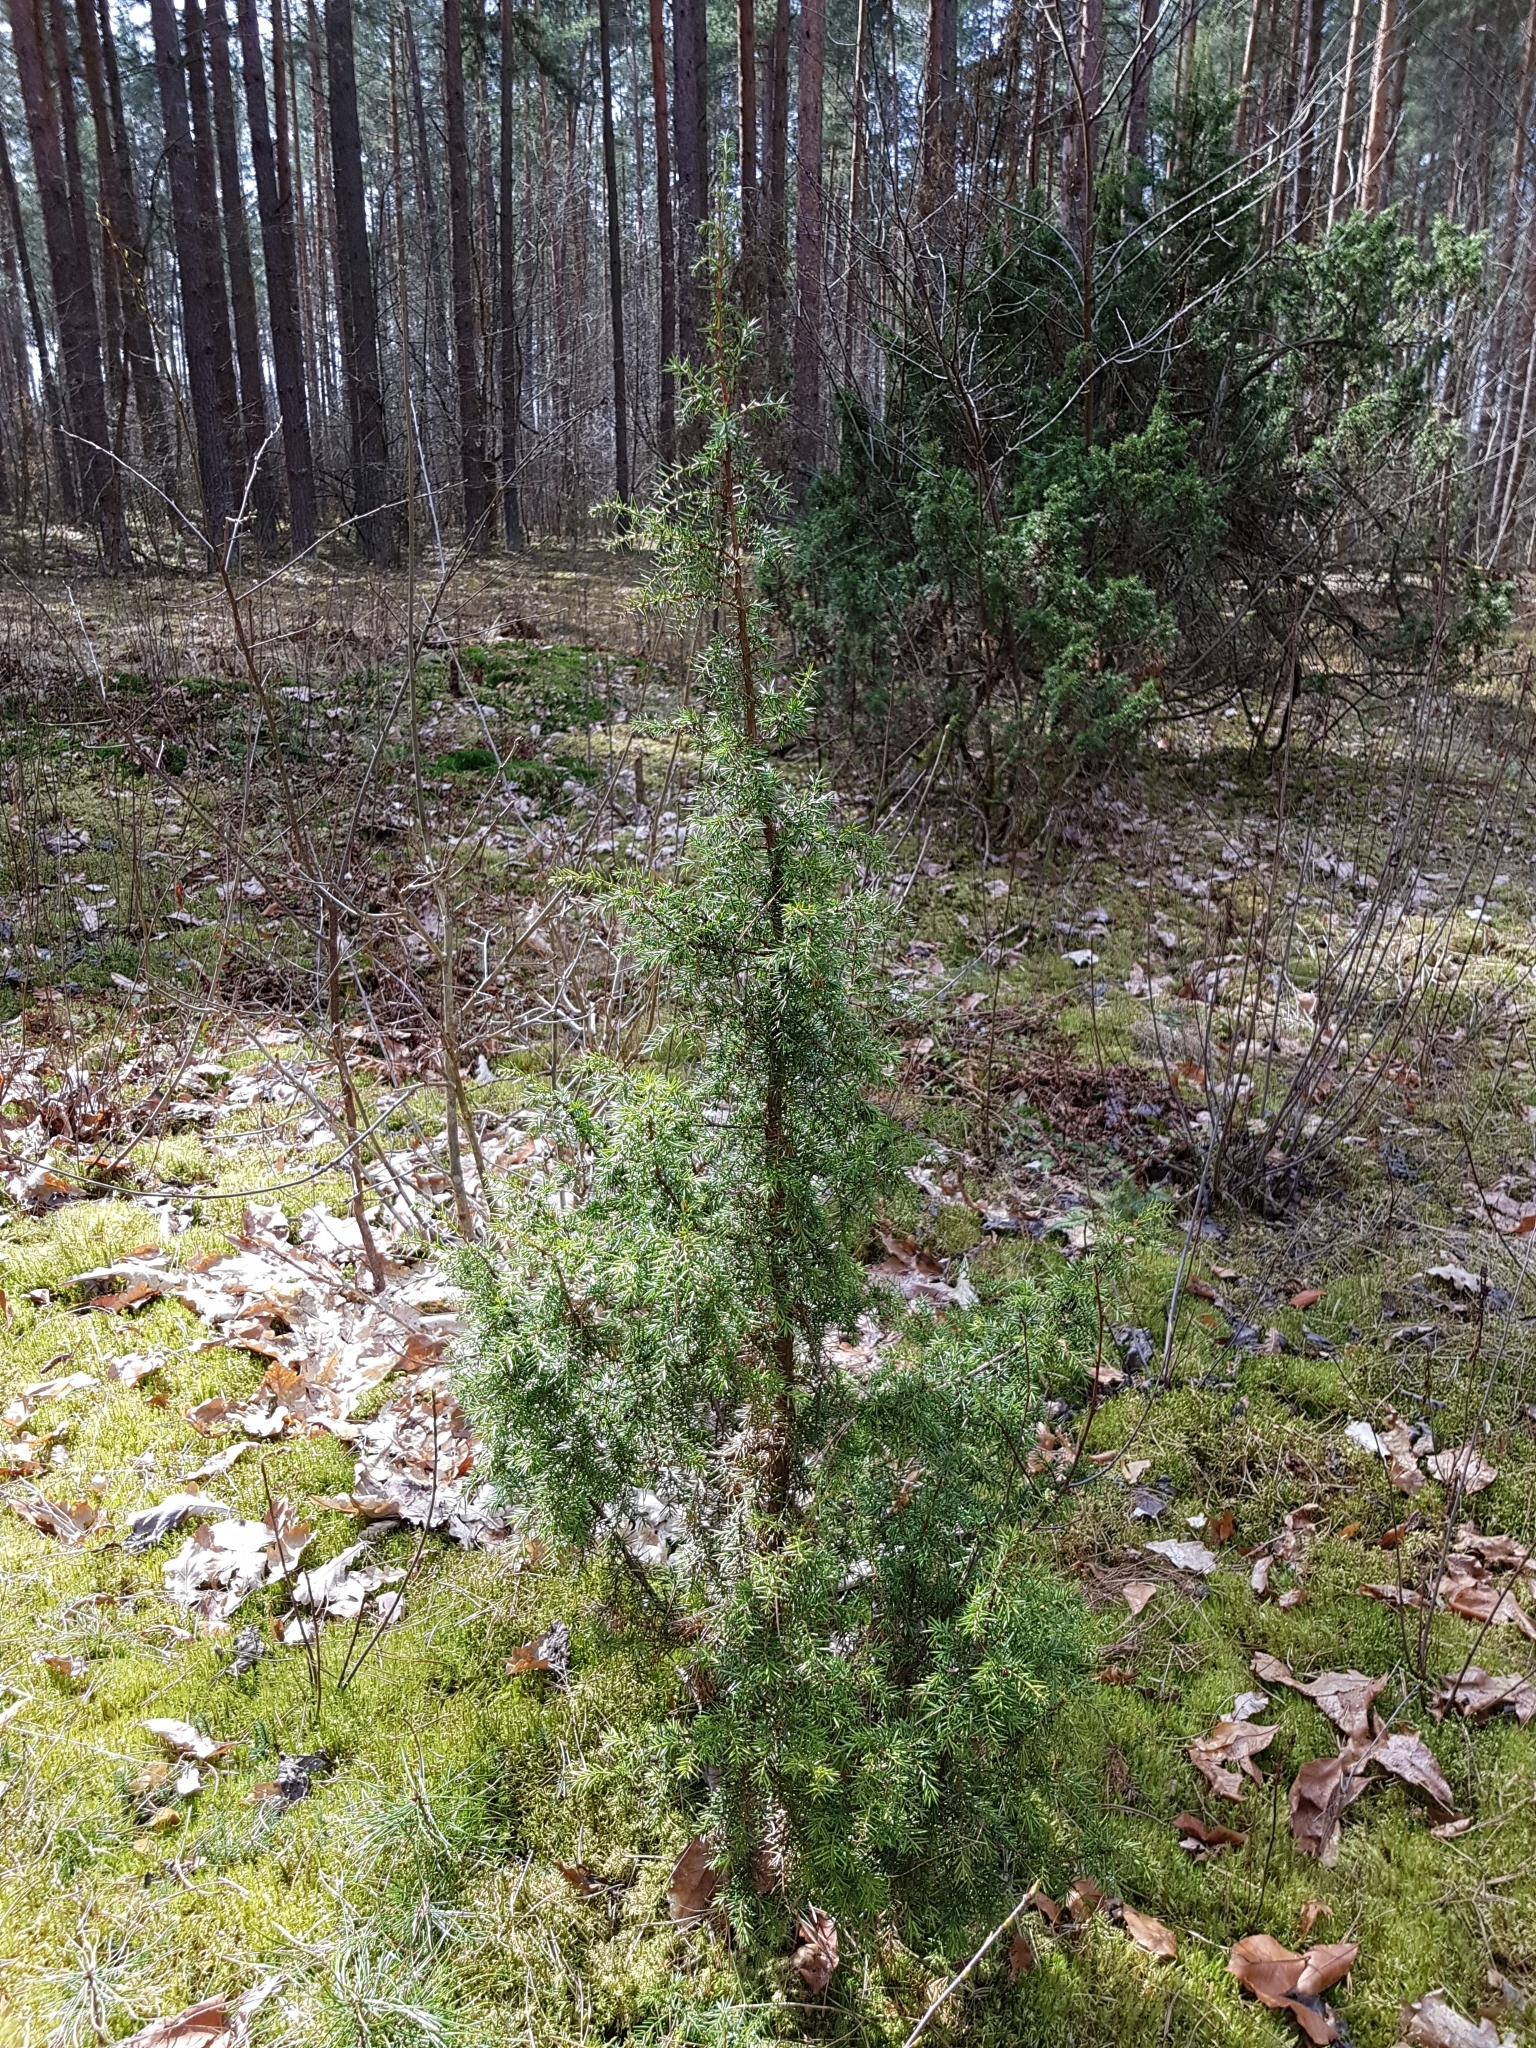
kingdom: Plantae
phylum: Tracheophyta
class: Pinopsida
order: Pinales
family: Cupressaceae
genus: Juniperus
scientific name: Juniperus communis
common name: Common juniper
